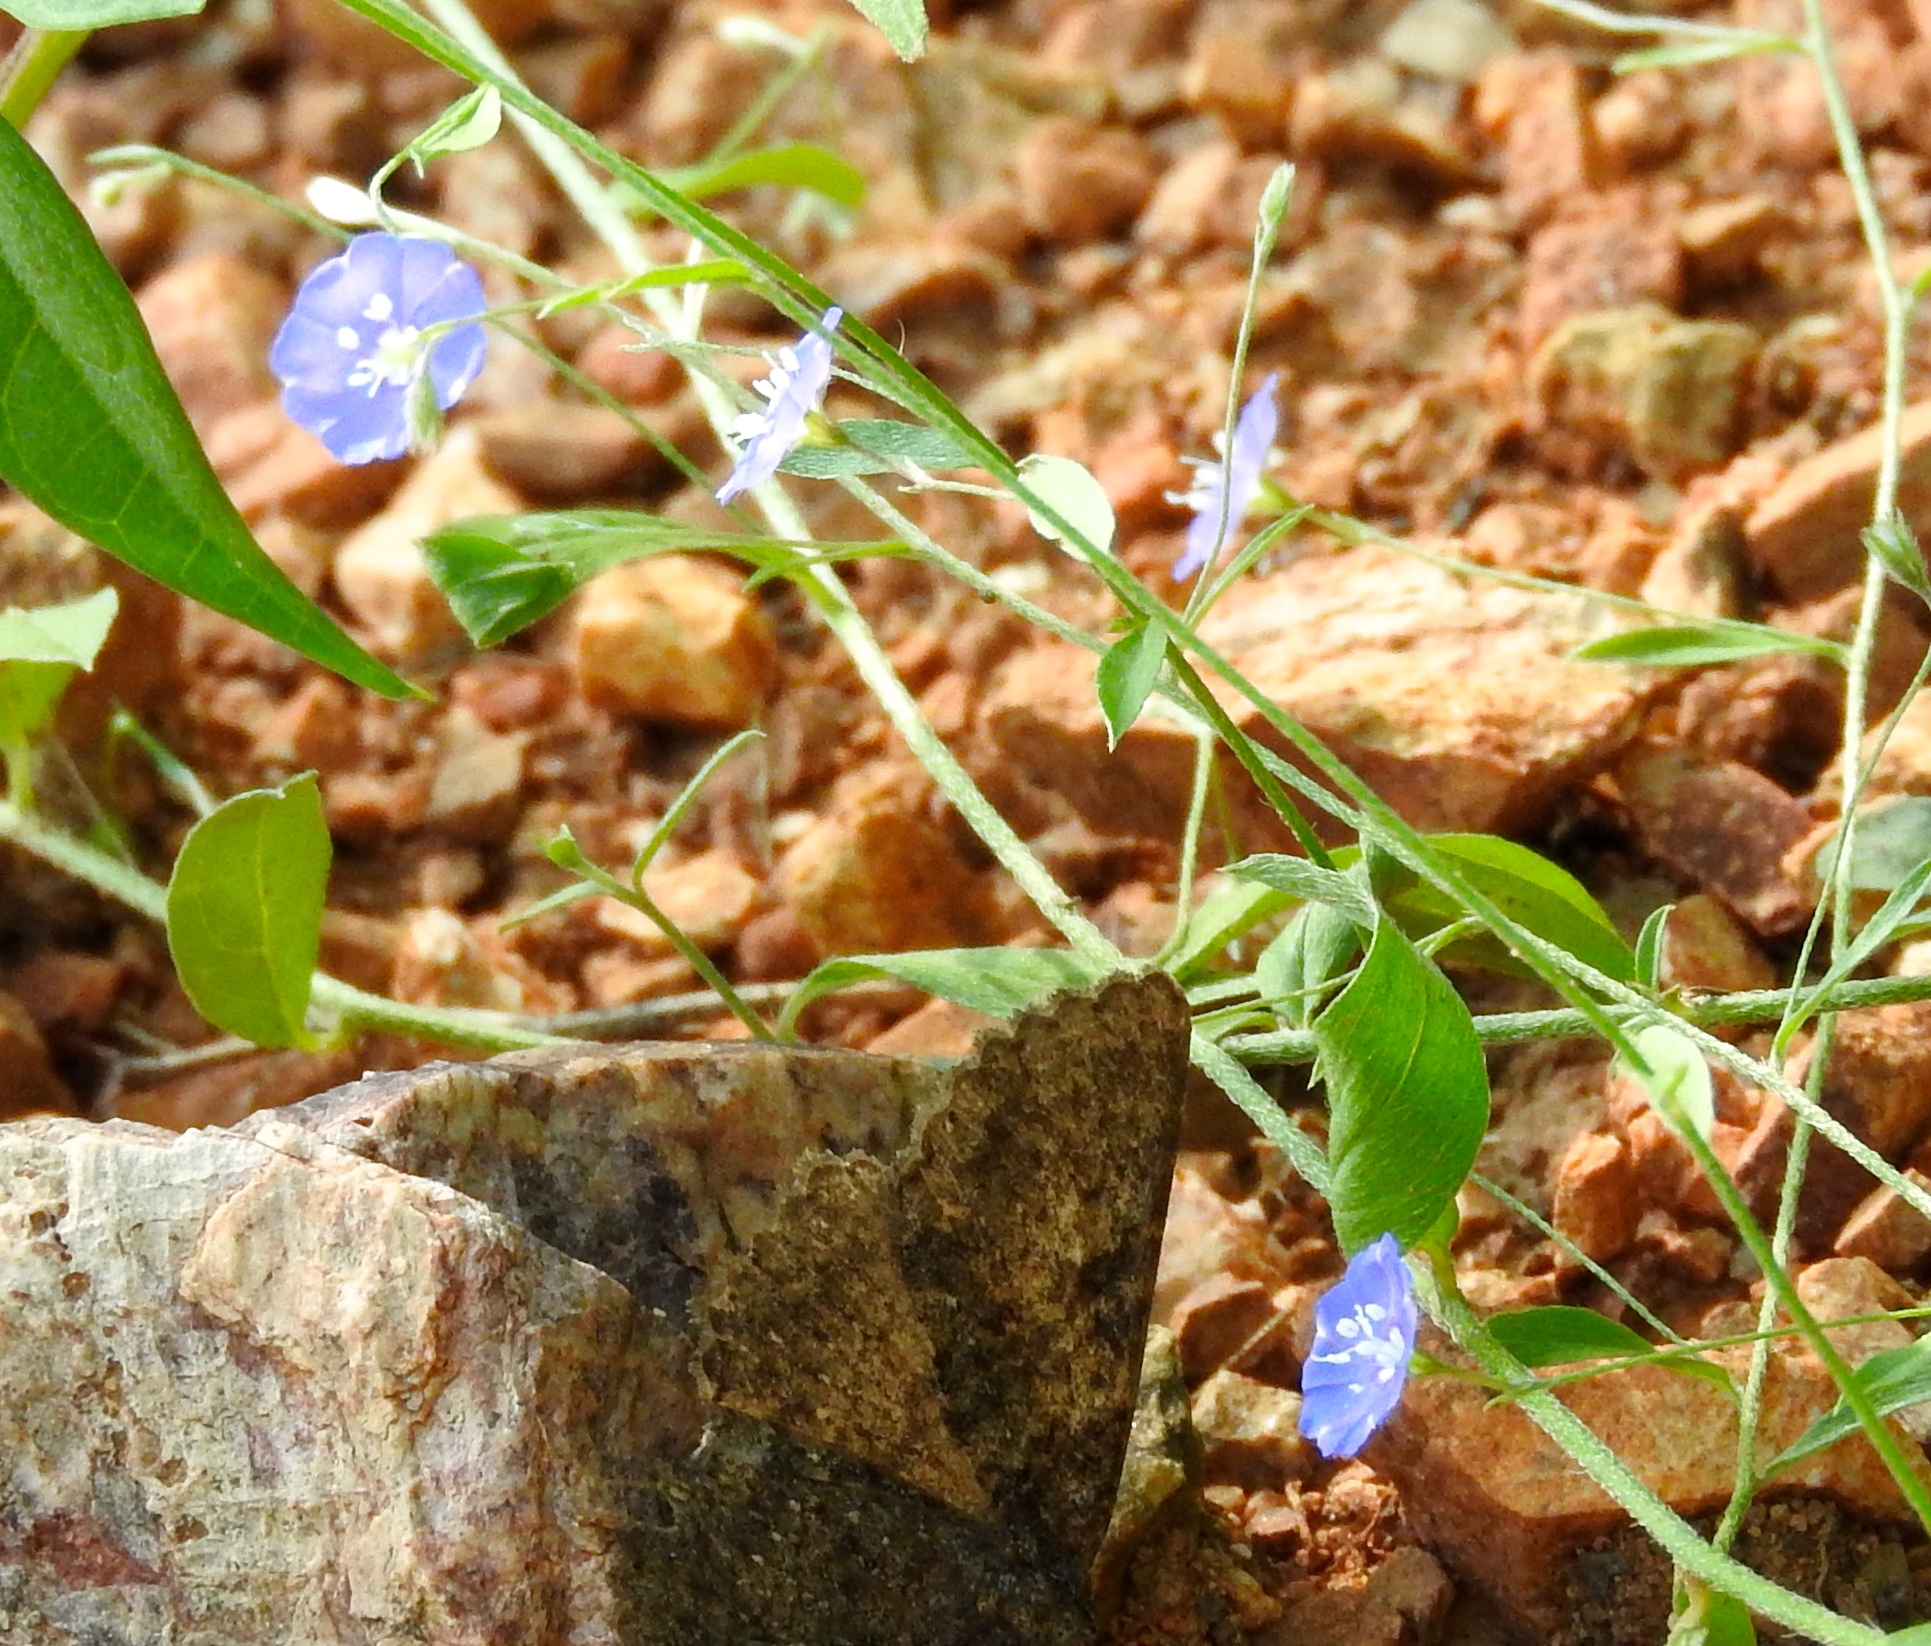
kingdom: Plantae
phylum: Tracheophyta
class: Magnoliopsida
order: Solanales
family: Convolvulaceae
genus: Evolvulus
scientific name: Evolvulus alsinoides
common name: Slender dwarf morning-glory
